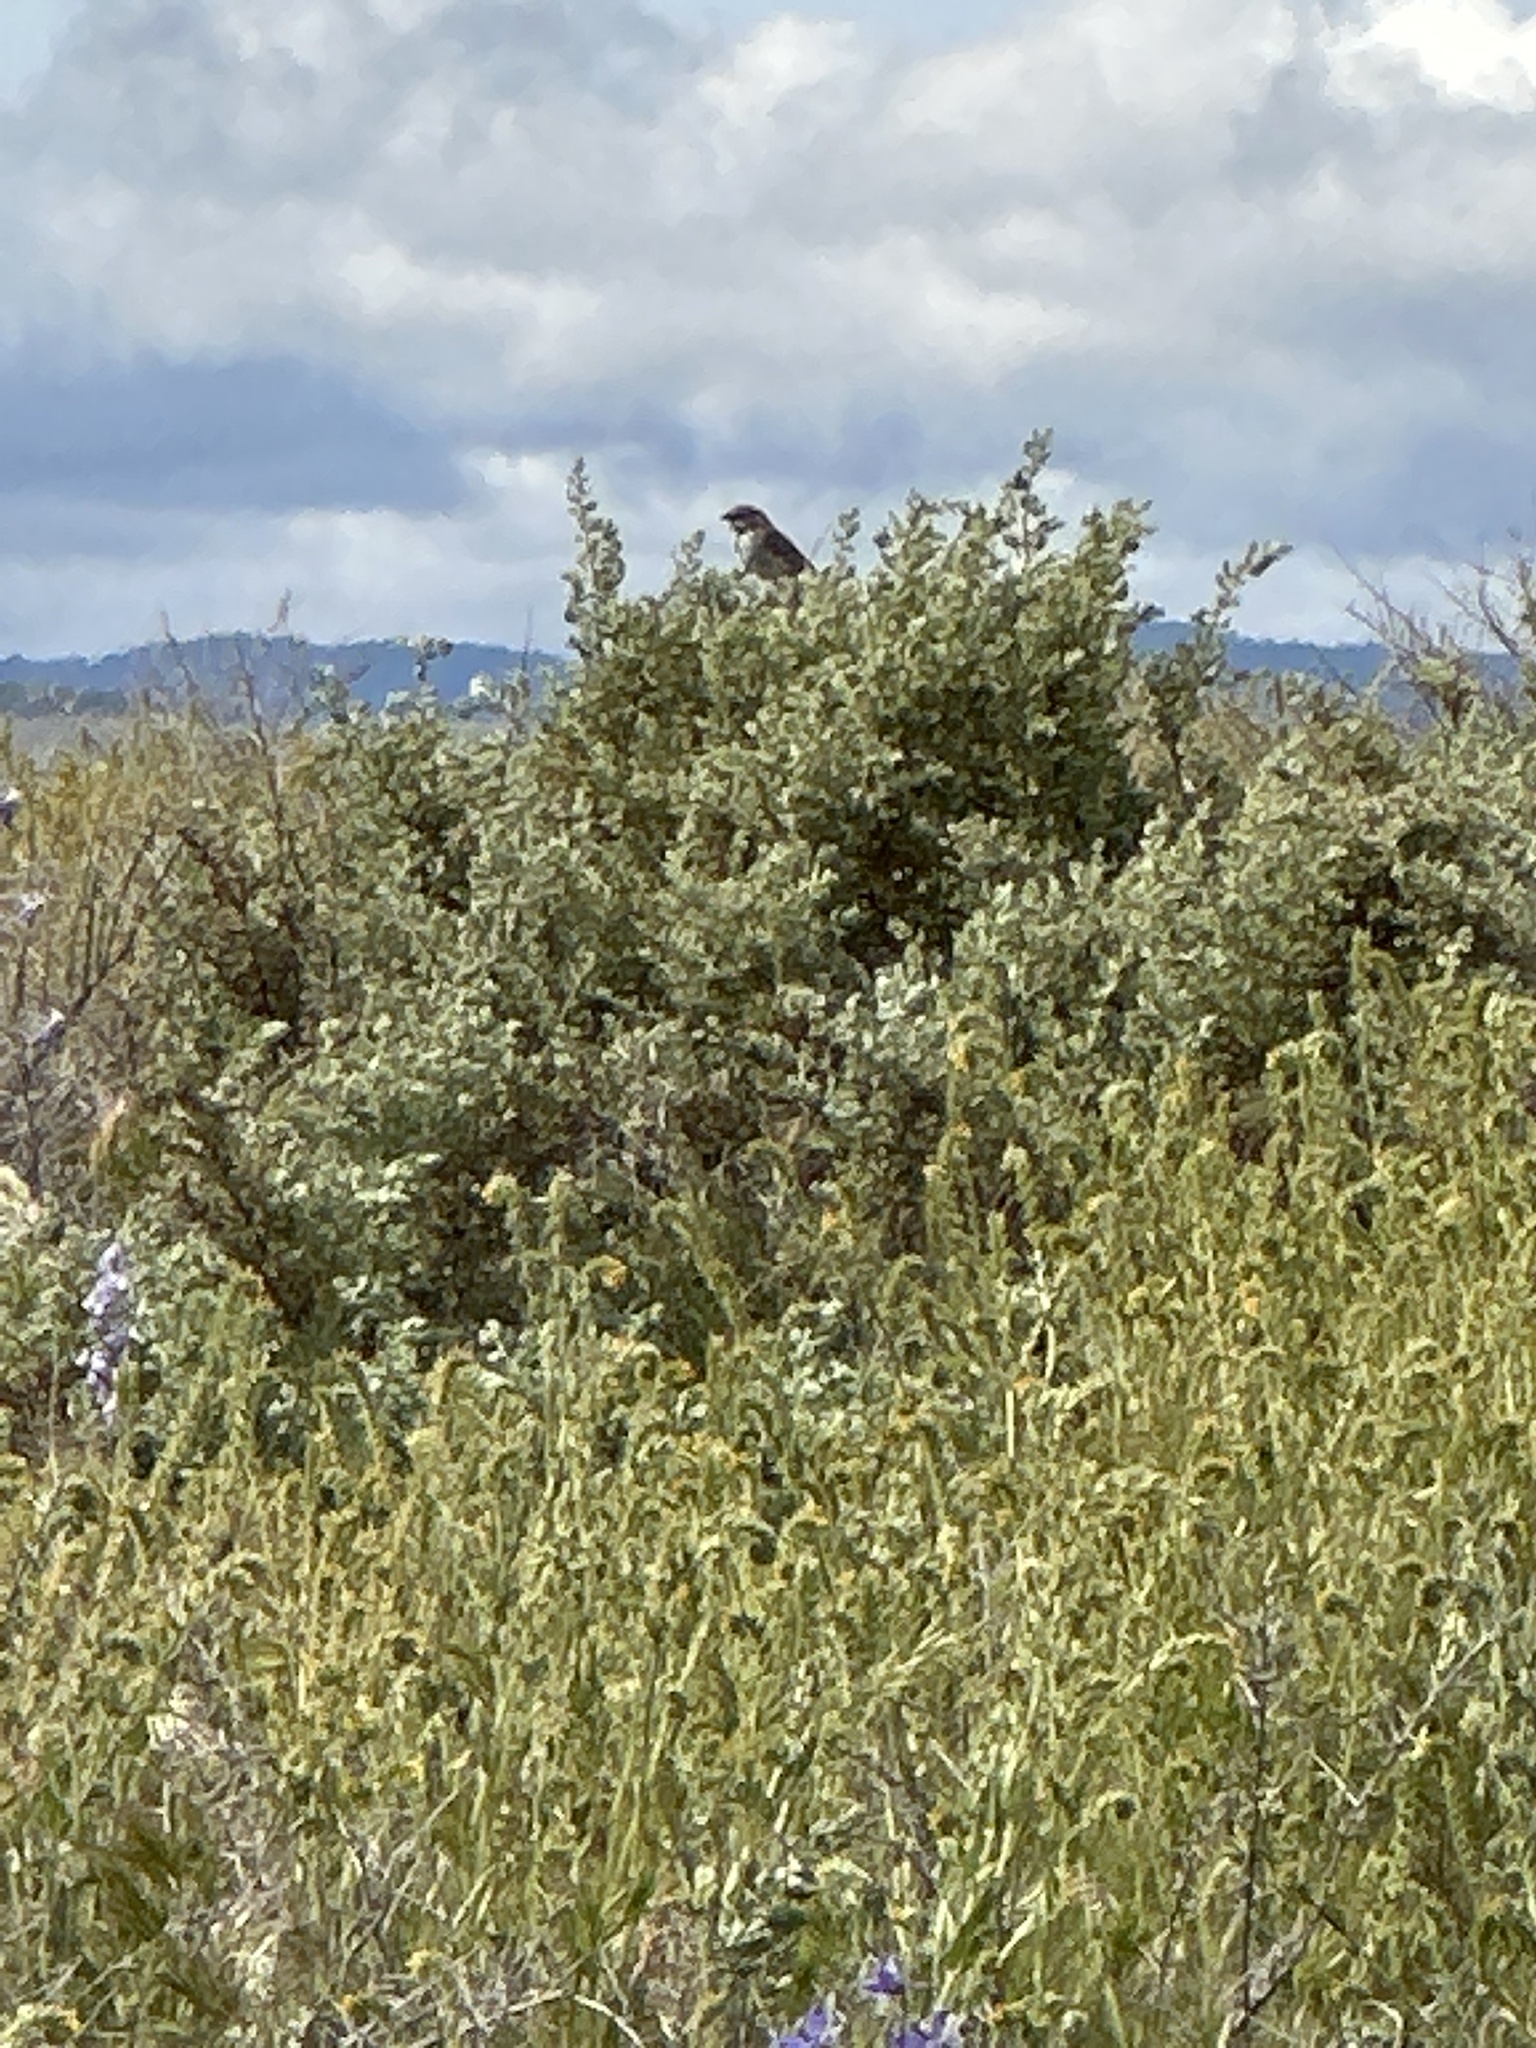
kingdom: Animalia
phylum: Chordata
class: Aves
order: Passeriformes
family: Passerellidae
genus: Artemisiospiza
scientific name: Artemisiospiza belli
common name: Bell's sparrow
